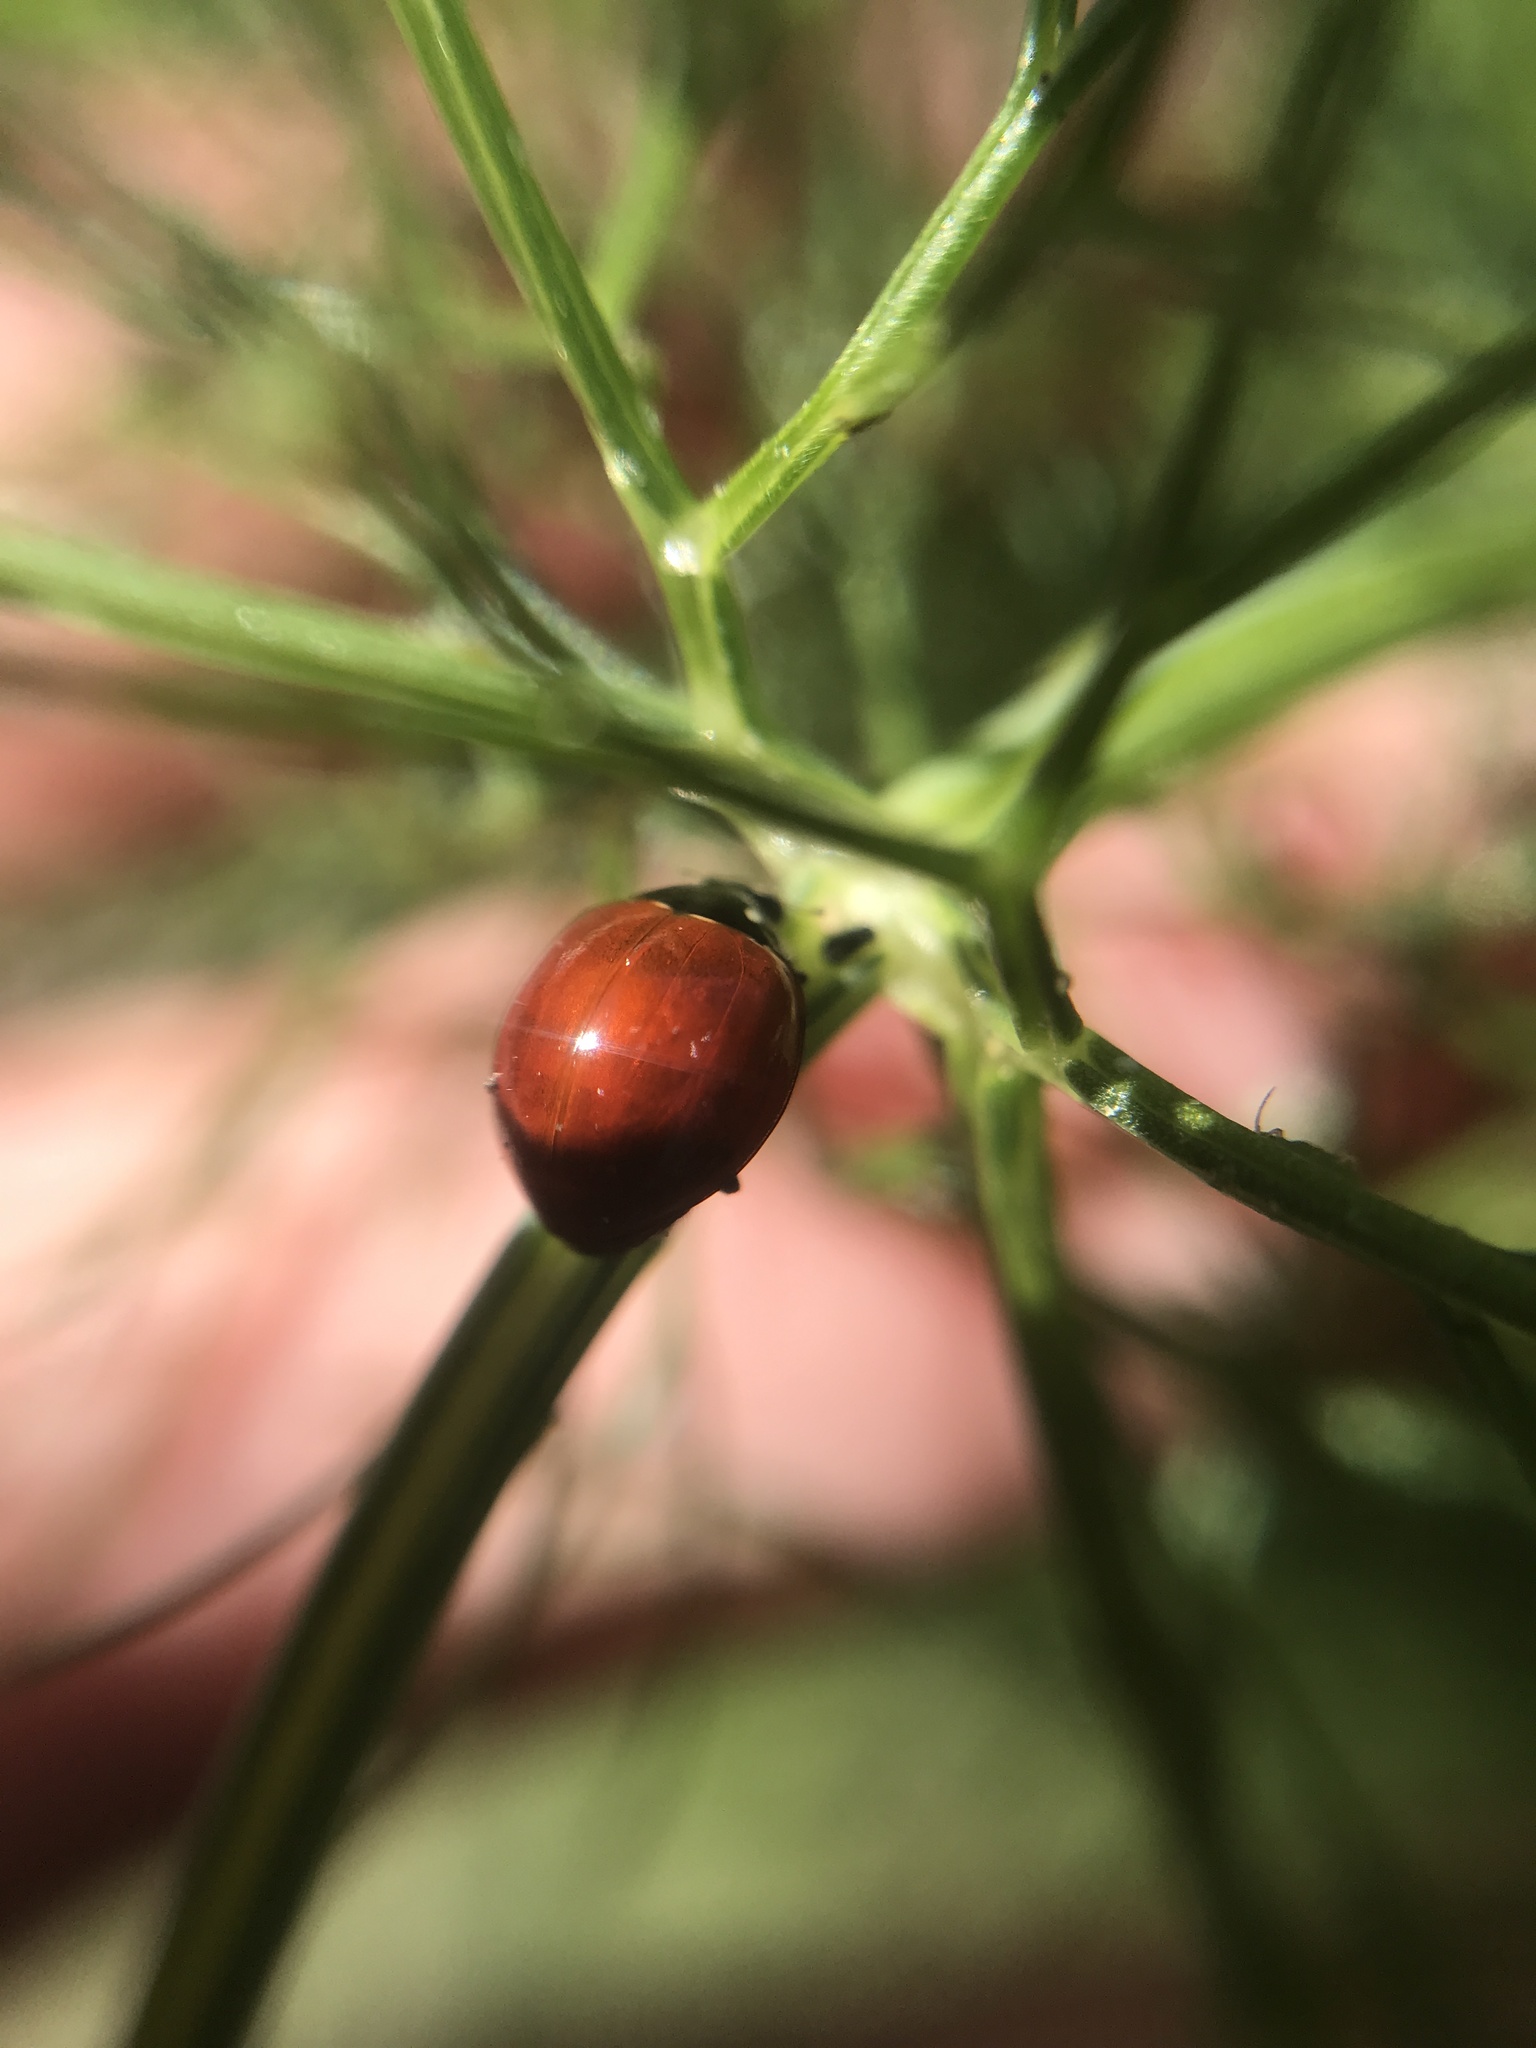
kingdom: Animalia
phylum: Arthropoda
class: Insecta
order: Coleoptera
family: Coccinellidae
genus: Cycloneda
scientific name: Cycloneda sanguinea
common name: Ladybird beetle
